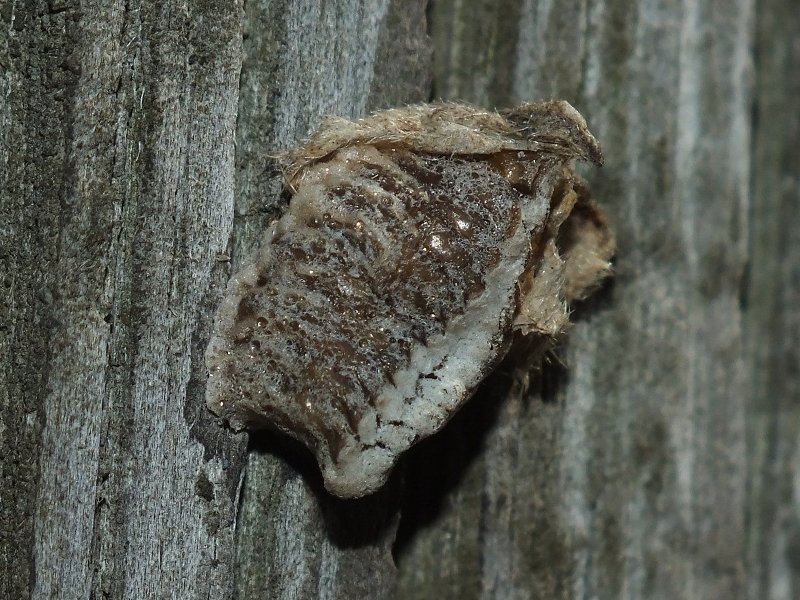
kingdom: Animalia
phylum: Arthropoda
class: Insecta
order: Mantodea
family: Eremiaphilidae
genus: Iris
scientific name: Iris polystictica
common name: Dot-winged mantis
